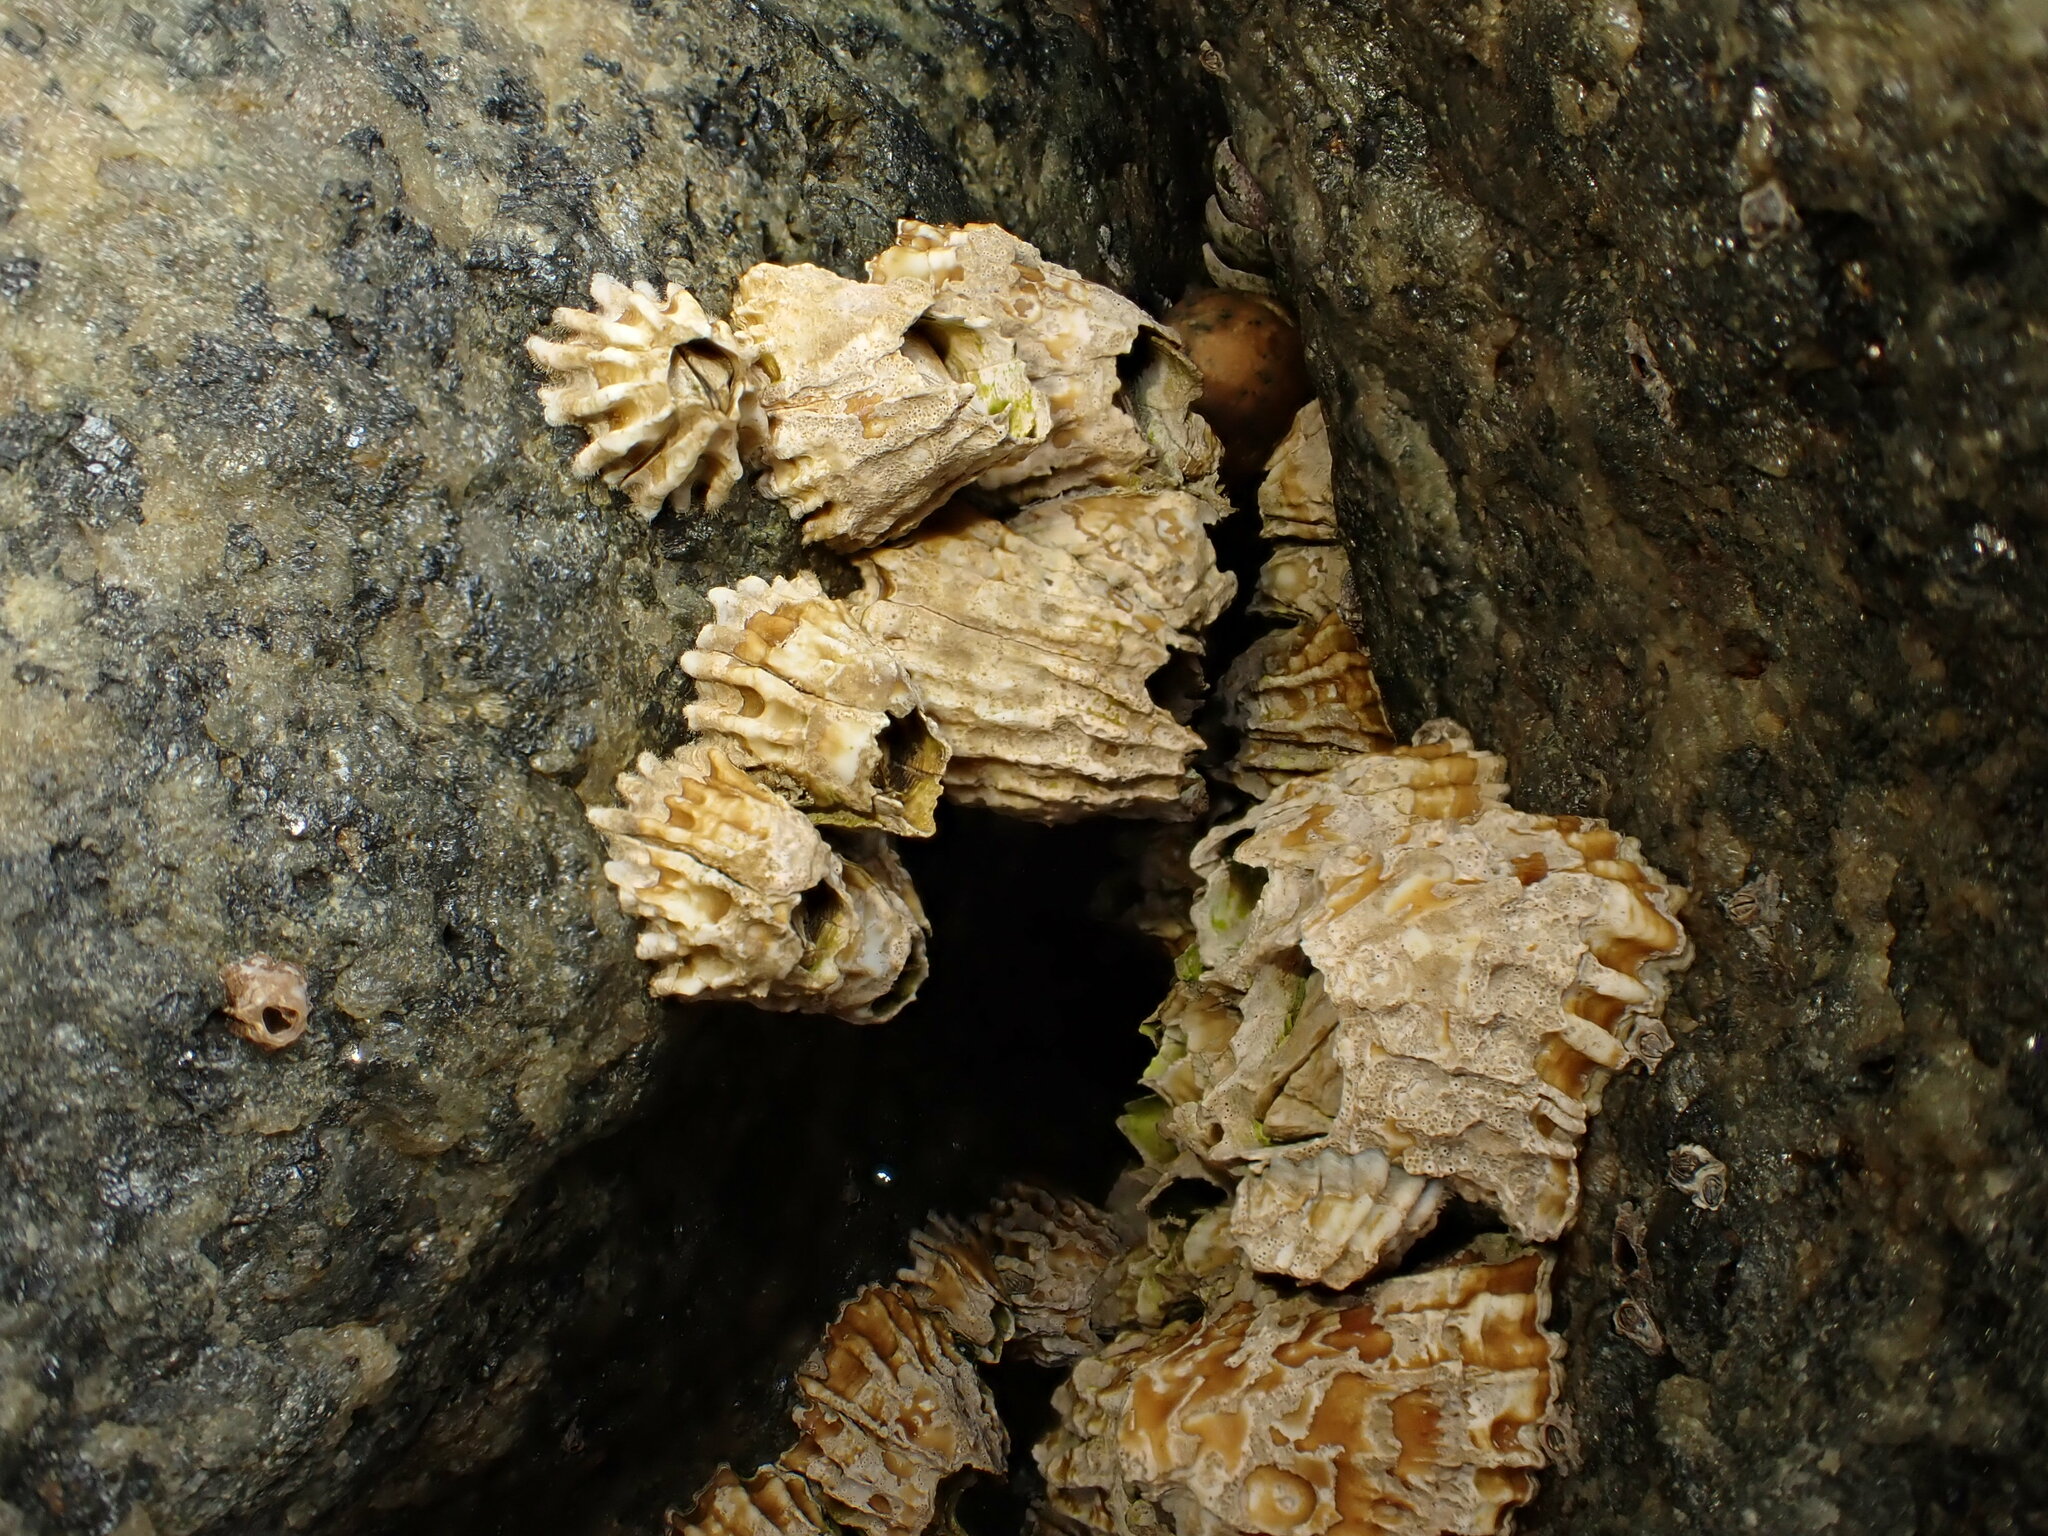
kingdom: Animalia
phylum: Arthropoda
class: Maxillopoda
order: Sessilia
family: Tetraclitidae
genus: Epopella
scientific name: Epopella plicata
